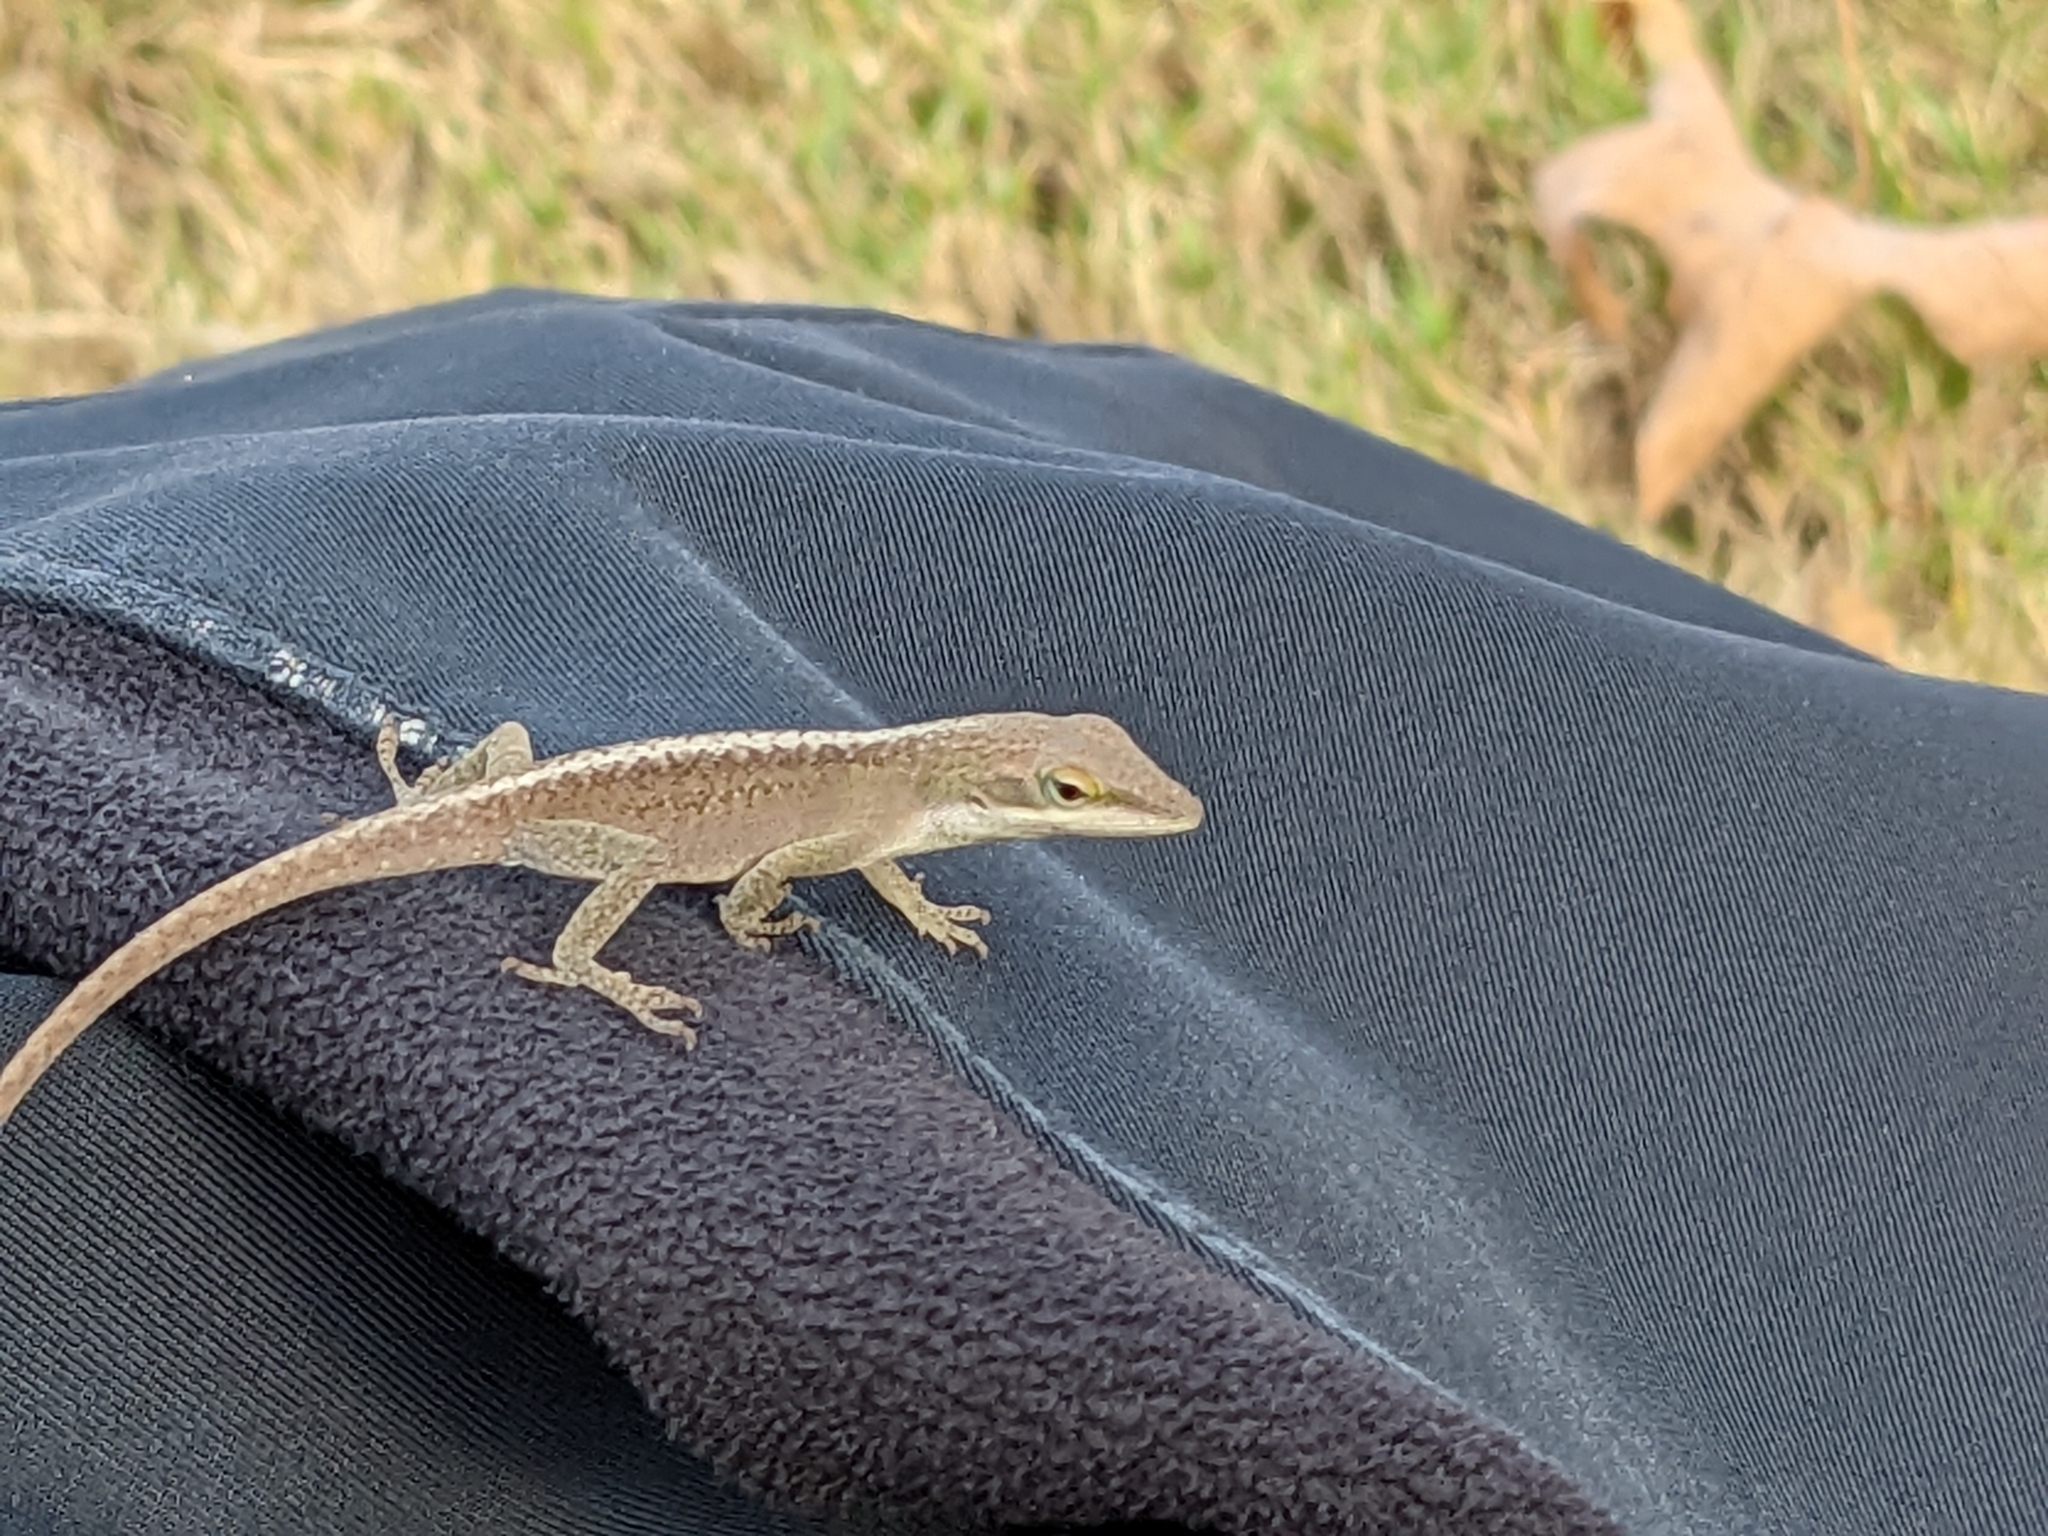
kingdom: Animalia
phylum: Chordata
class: Squamata
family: Dactyloidae
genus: Anolis
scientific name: Anolis carolinensis
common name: Green anole
